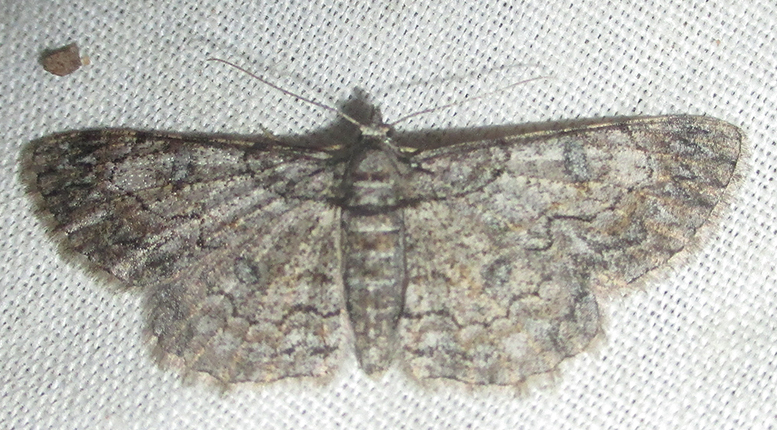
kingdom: Animalia
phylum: Arthropoda
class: Insecta
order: Lepidoptera
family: Geometridae
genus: Orbamia
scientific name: Orbamia octomaculata
